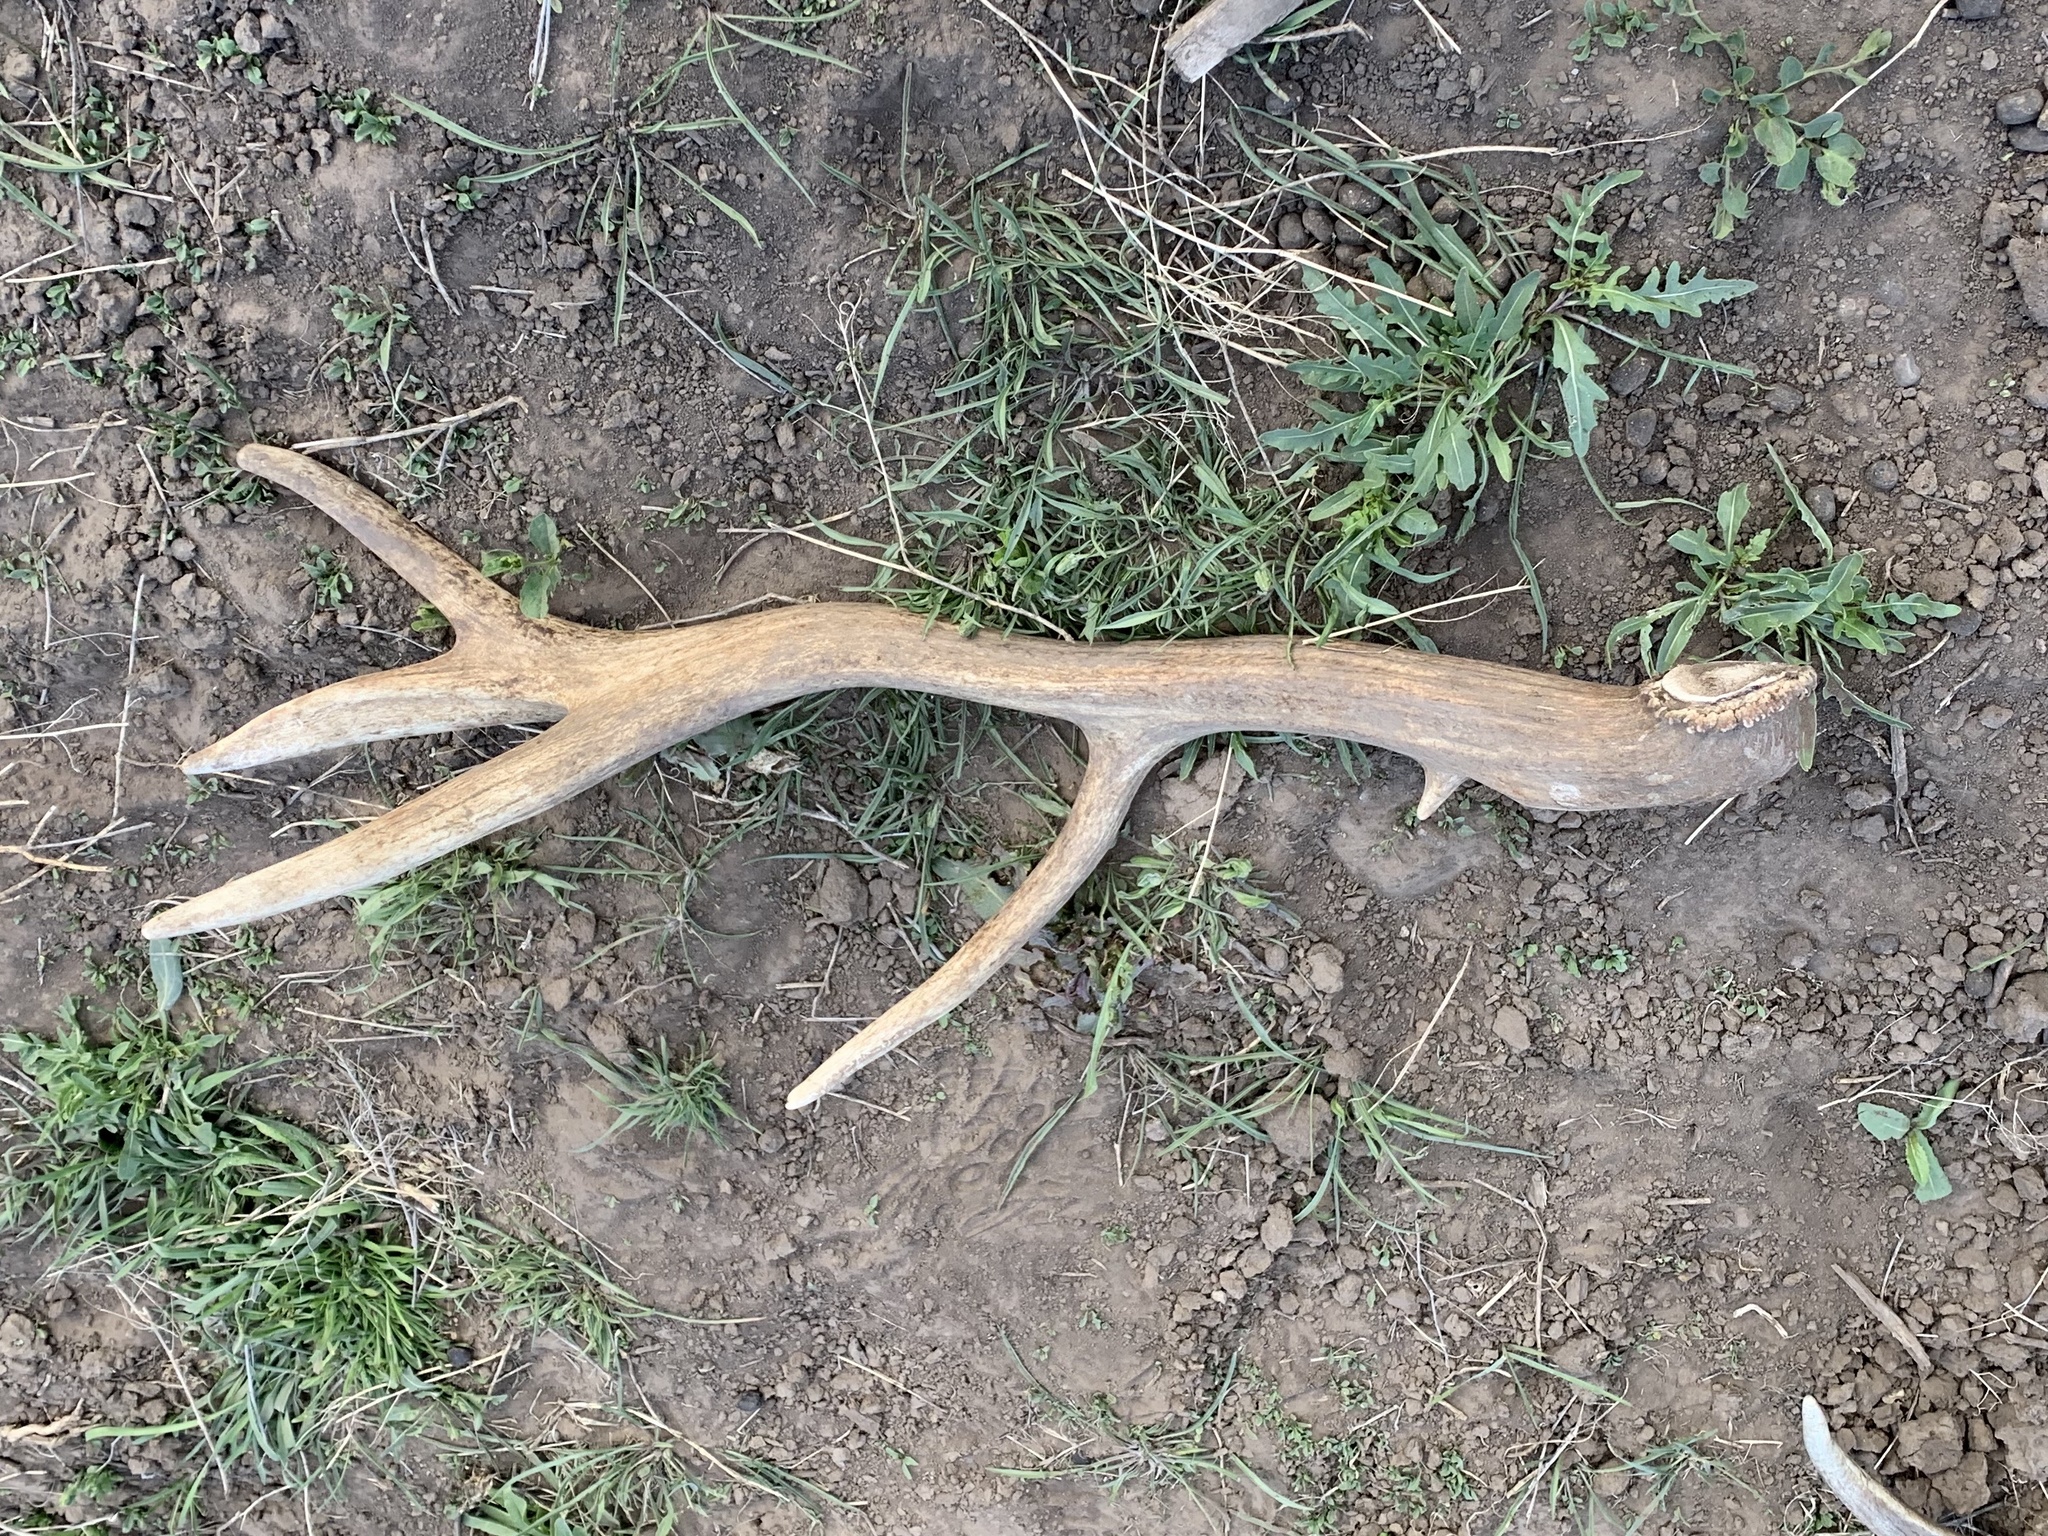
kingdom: Animalia
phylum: Chordata
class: Mammalia
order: Artiodactyla
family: Cervidae
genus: Cervus
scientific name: Cervus elaphus
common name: Red deer
